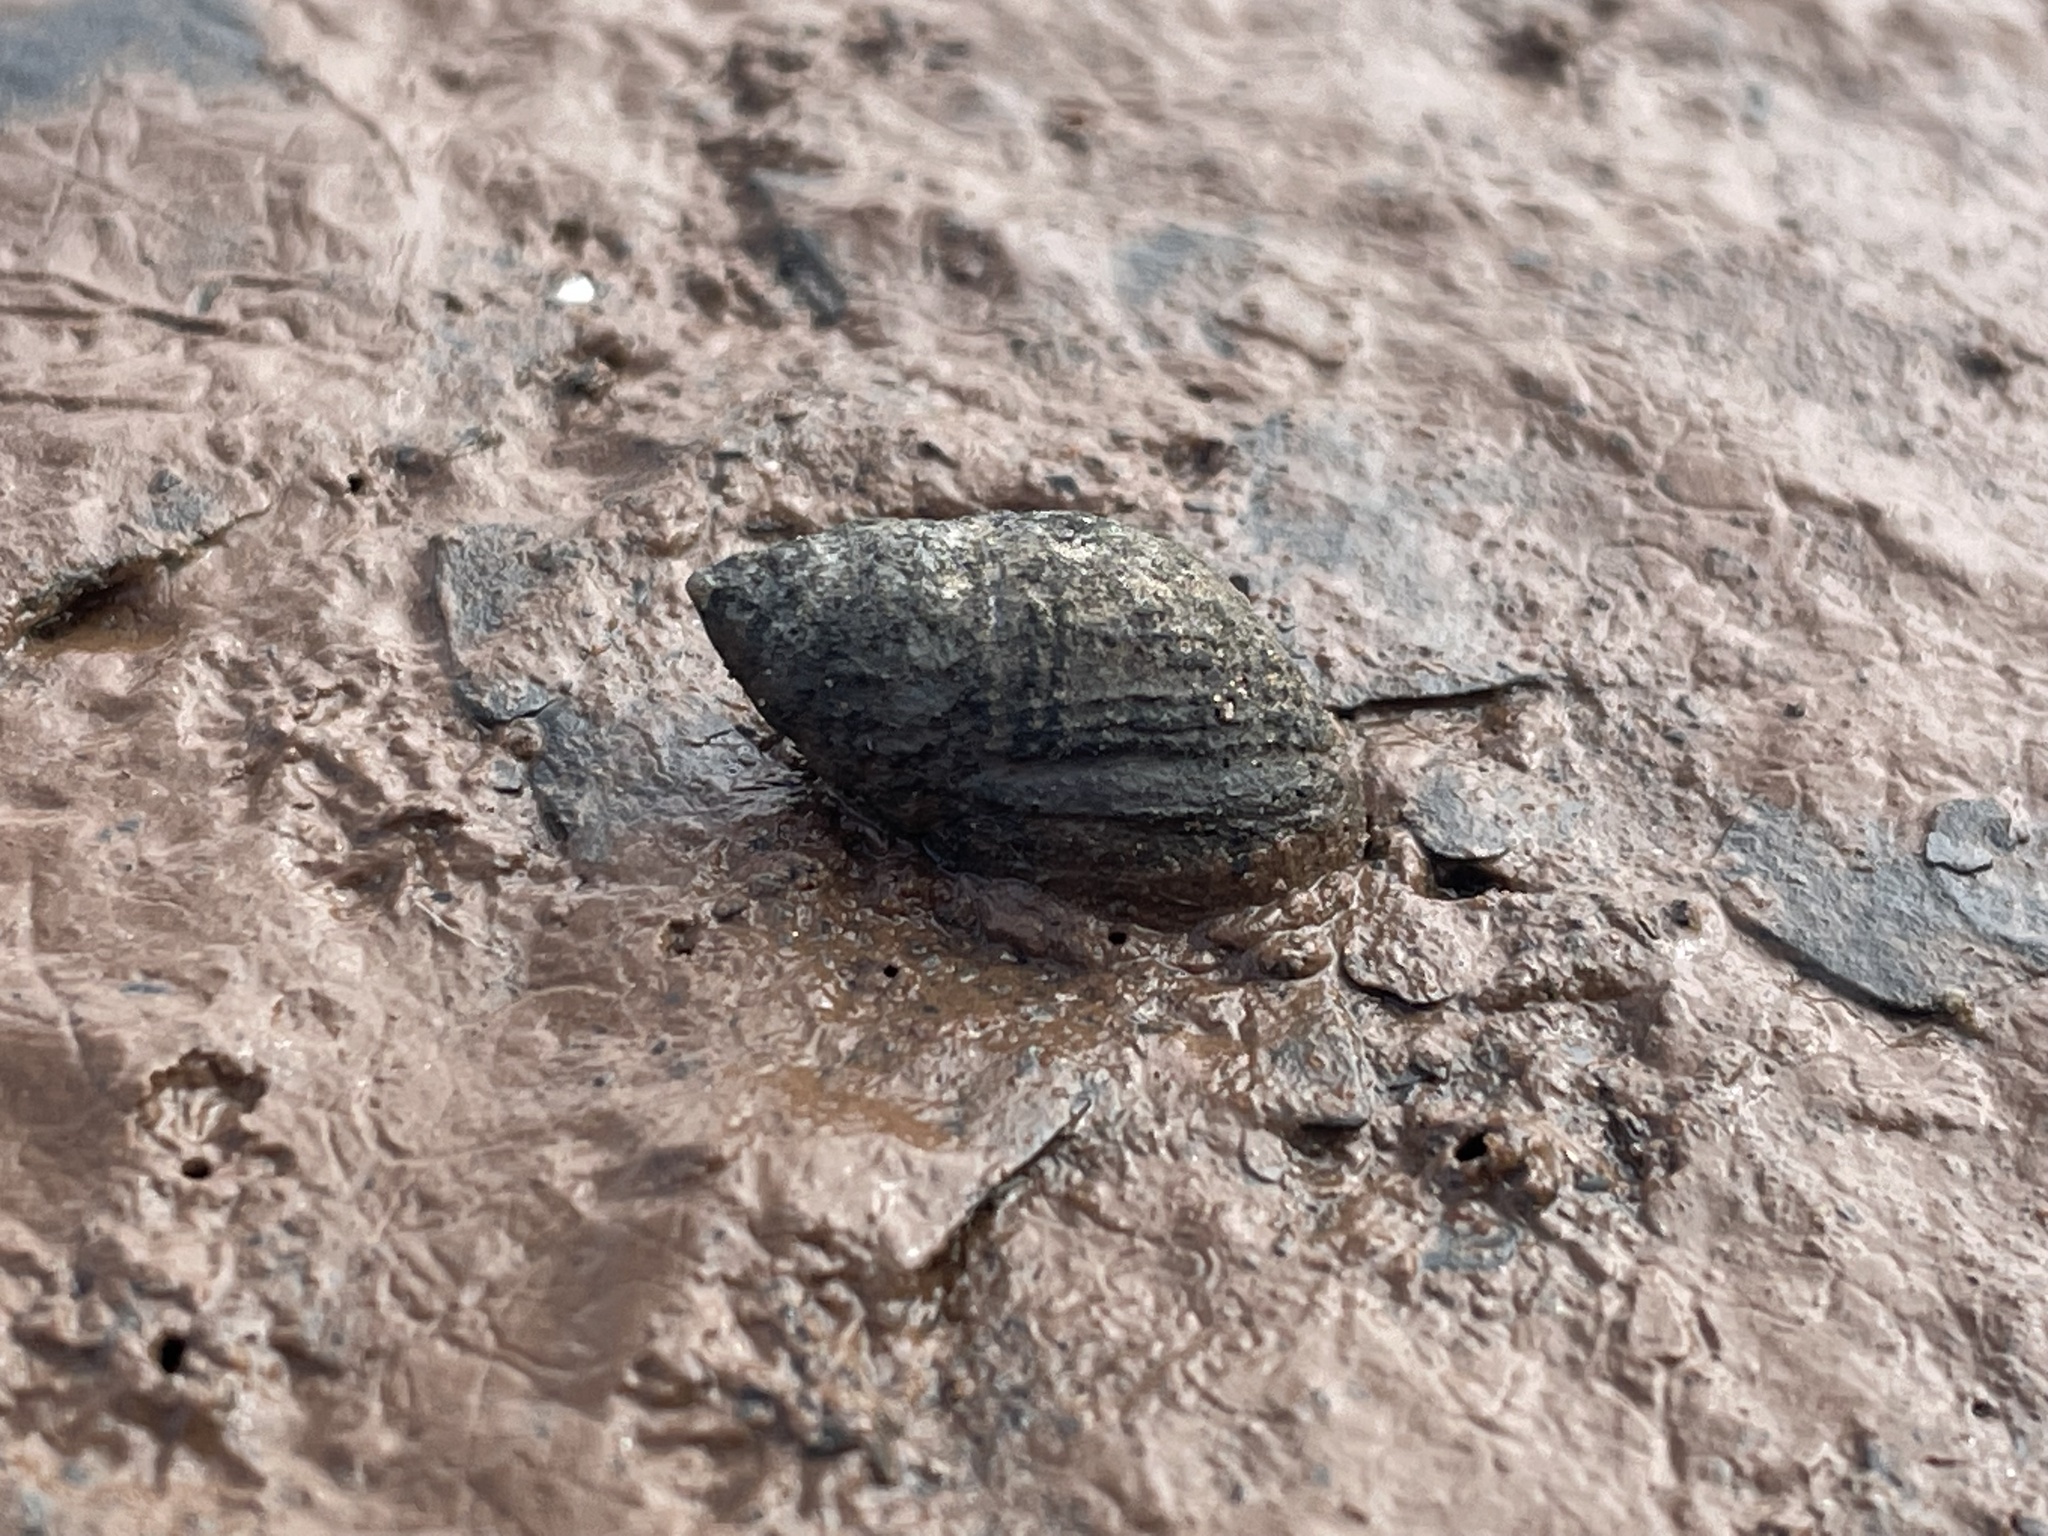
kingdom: Animalia
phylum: Mollusca
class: Gastropoda
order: Neogastropoda
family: Nassariidae
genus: Ilyanassa
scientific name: Ilyanassa obsoleta
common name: Eastern mudsnail
